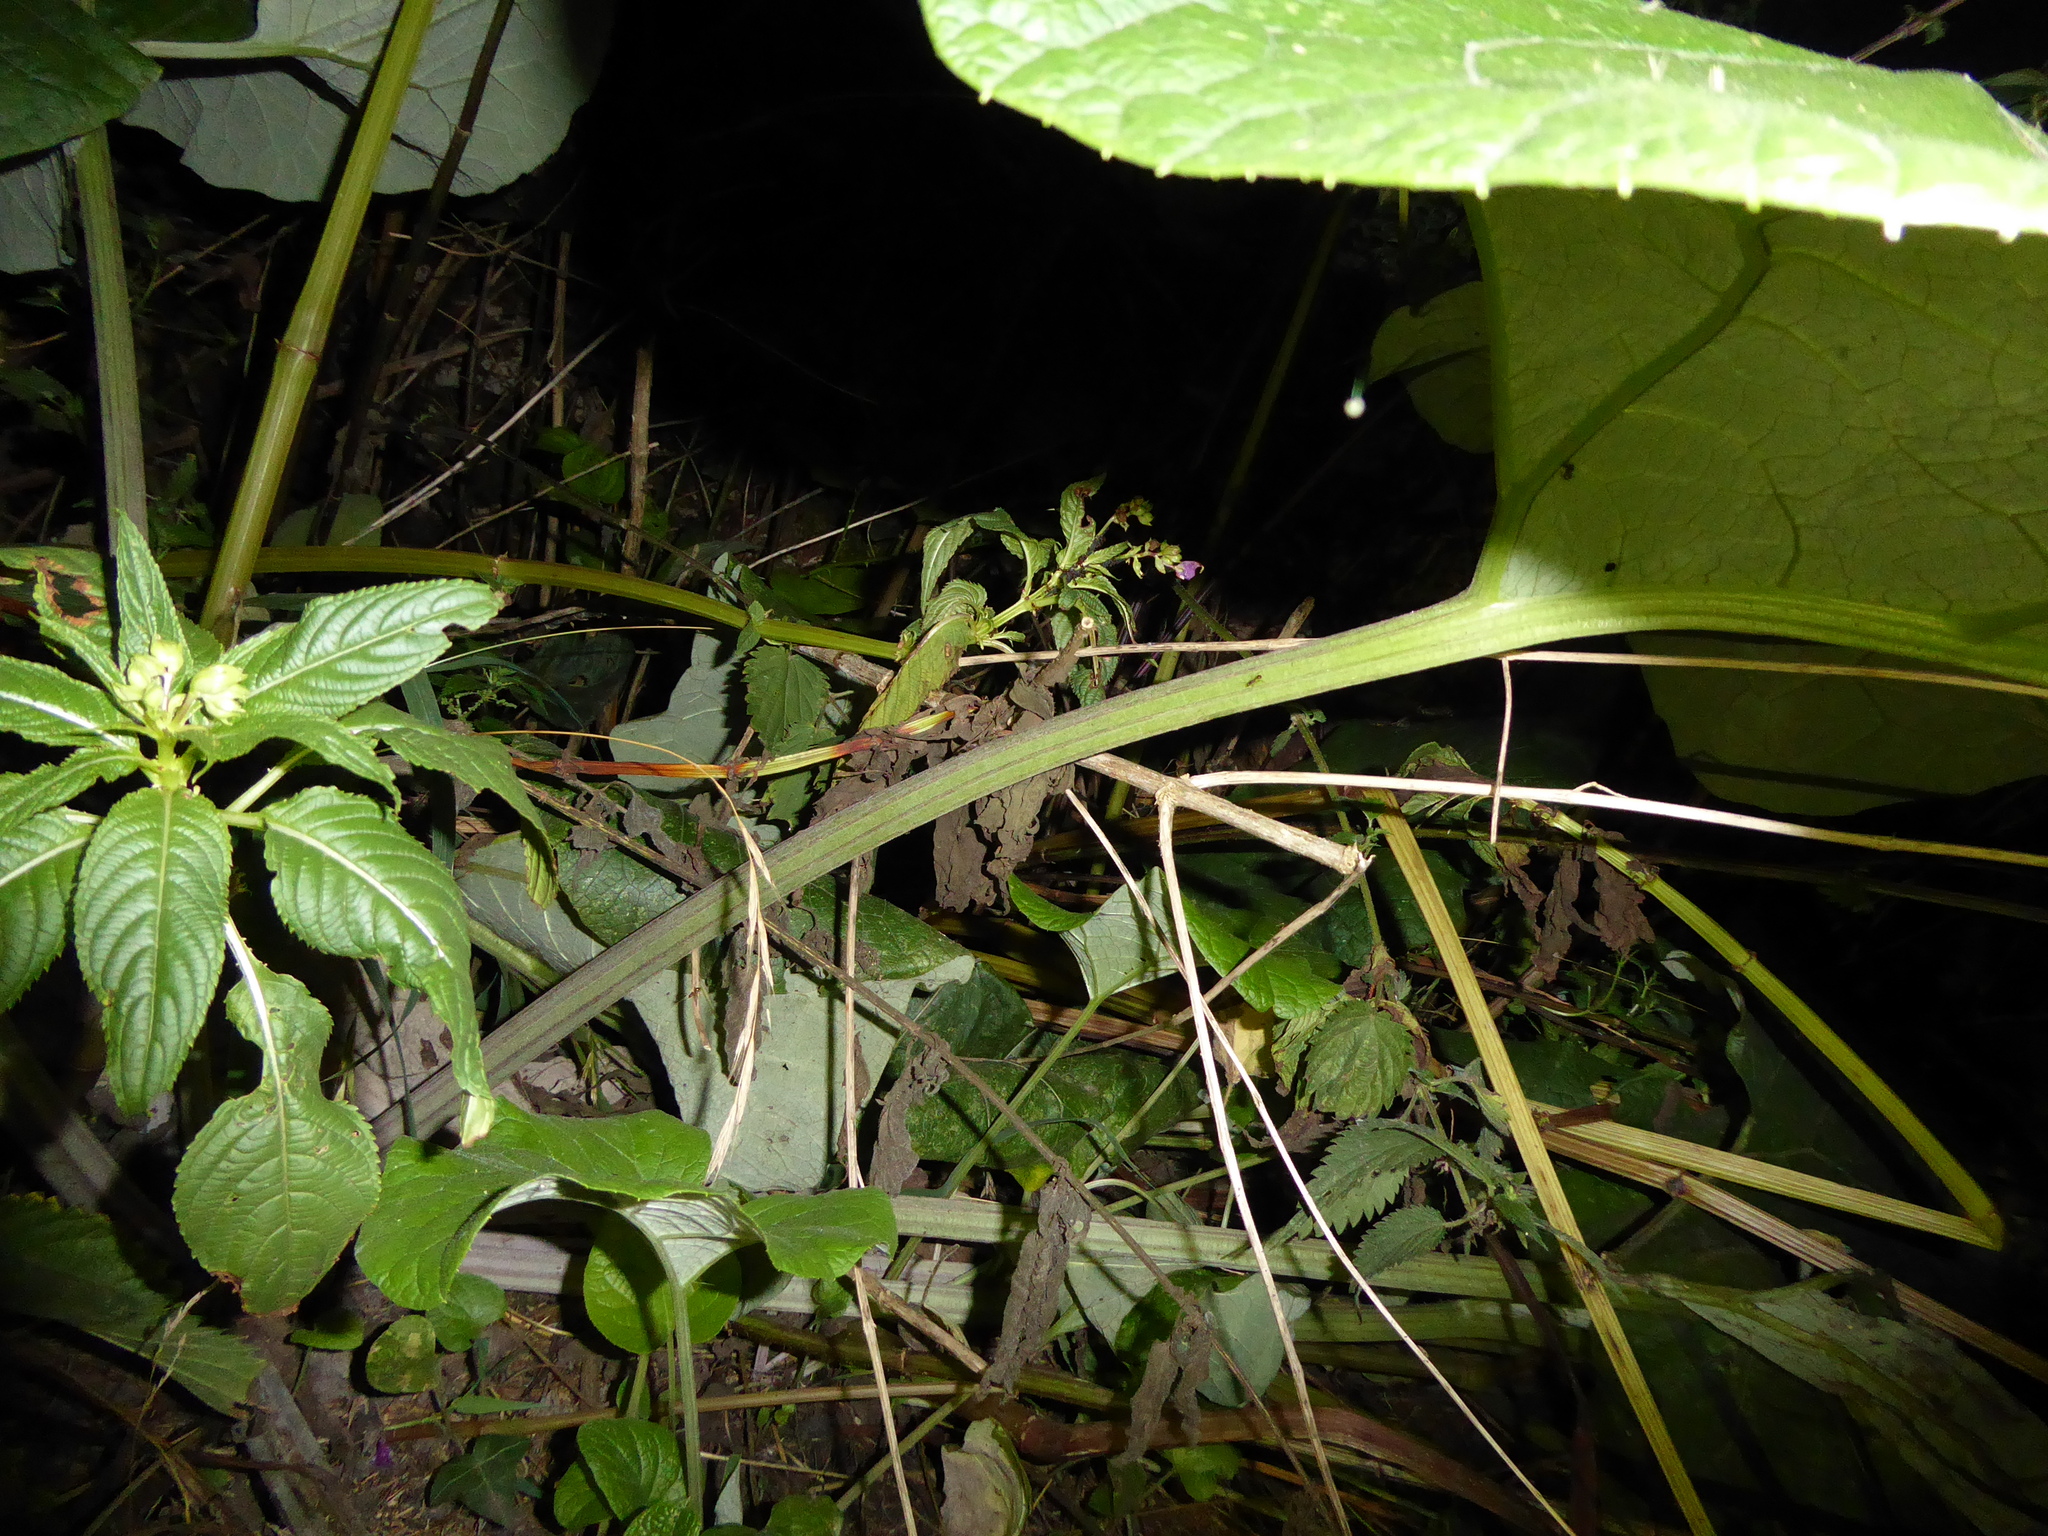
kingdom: Plantae
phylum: Tracheophyta
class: Magnoliopsida
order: Asterales
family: Asteraceae
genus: Arctium
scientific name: Arctium
